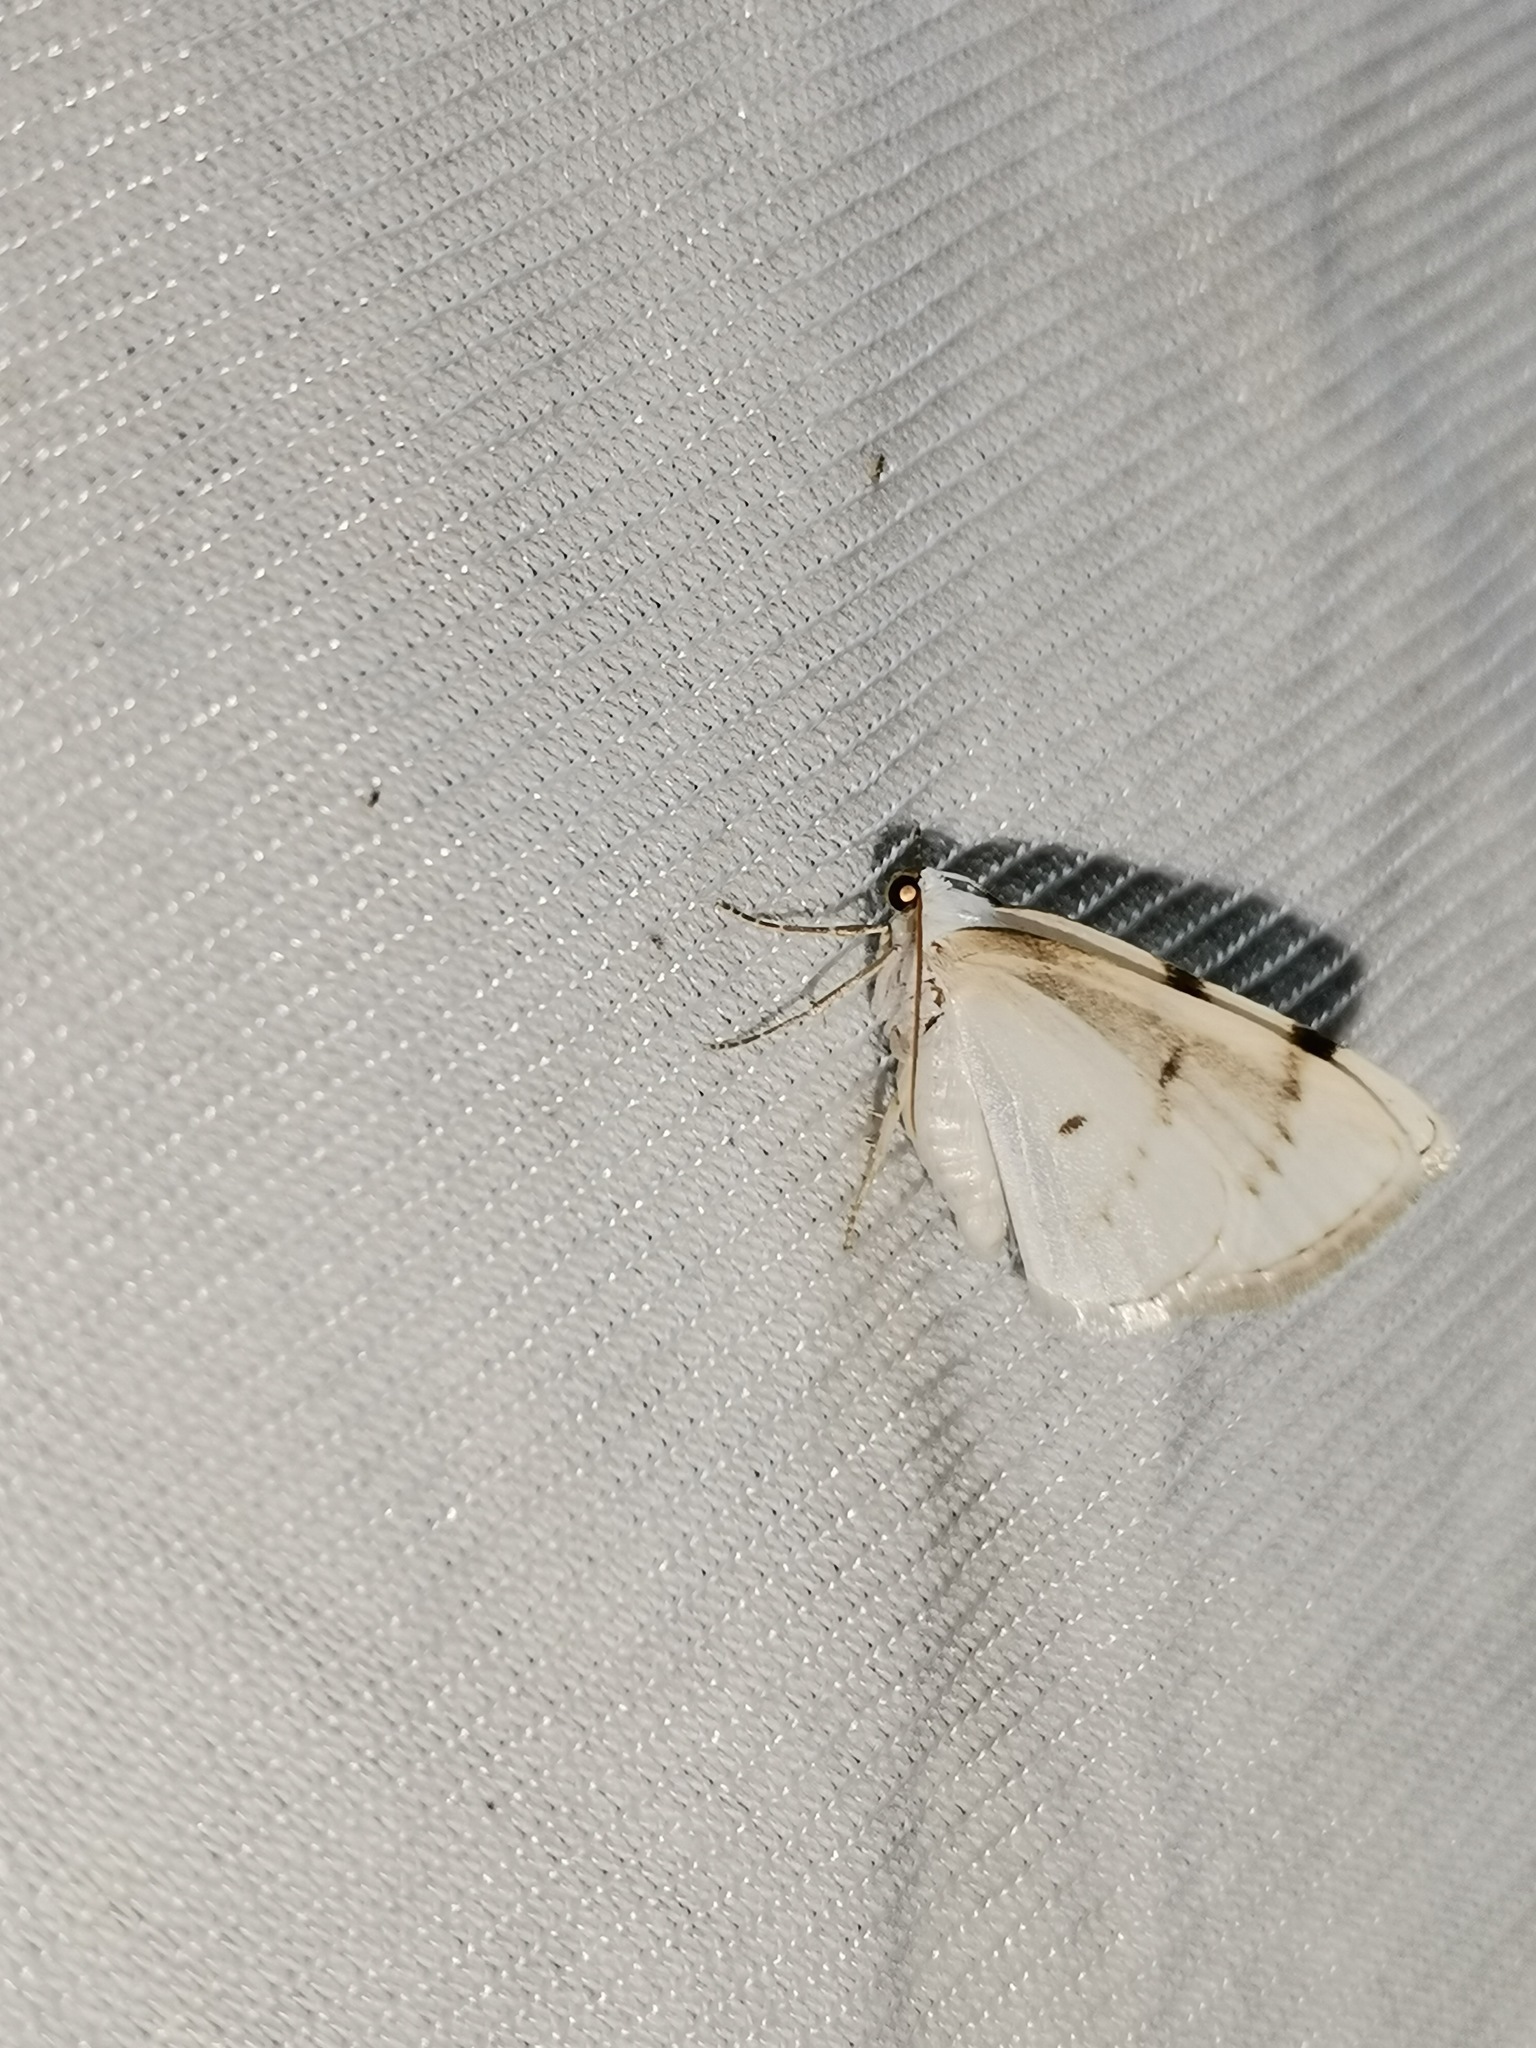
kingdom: Animalia
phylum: Arthropoda
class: Insecta
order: Lepidoptera
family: Geometridae
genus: Lomographa
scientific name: Lomographa bimaculata
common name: White-pinion spotted
